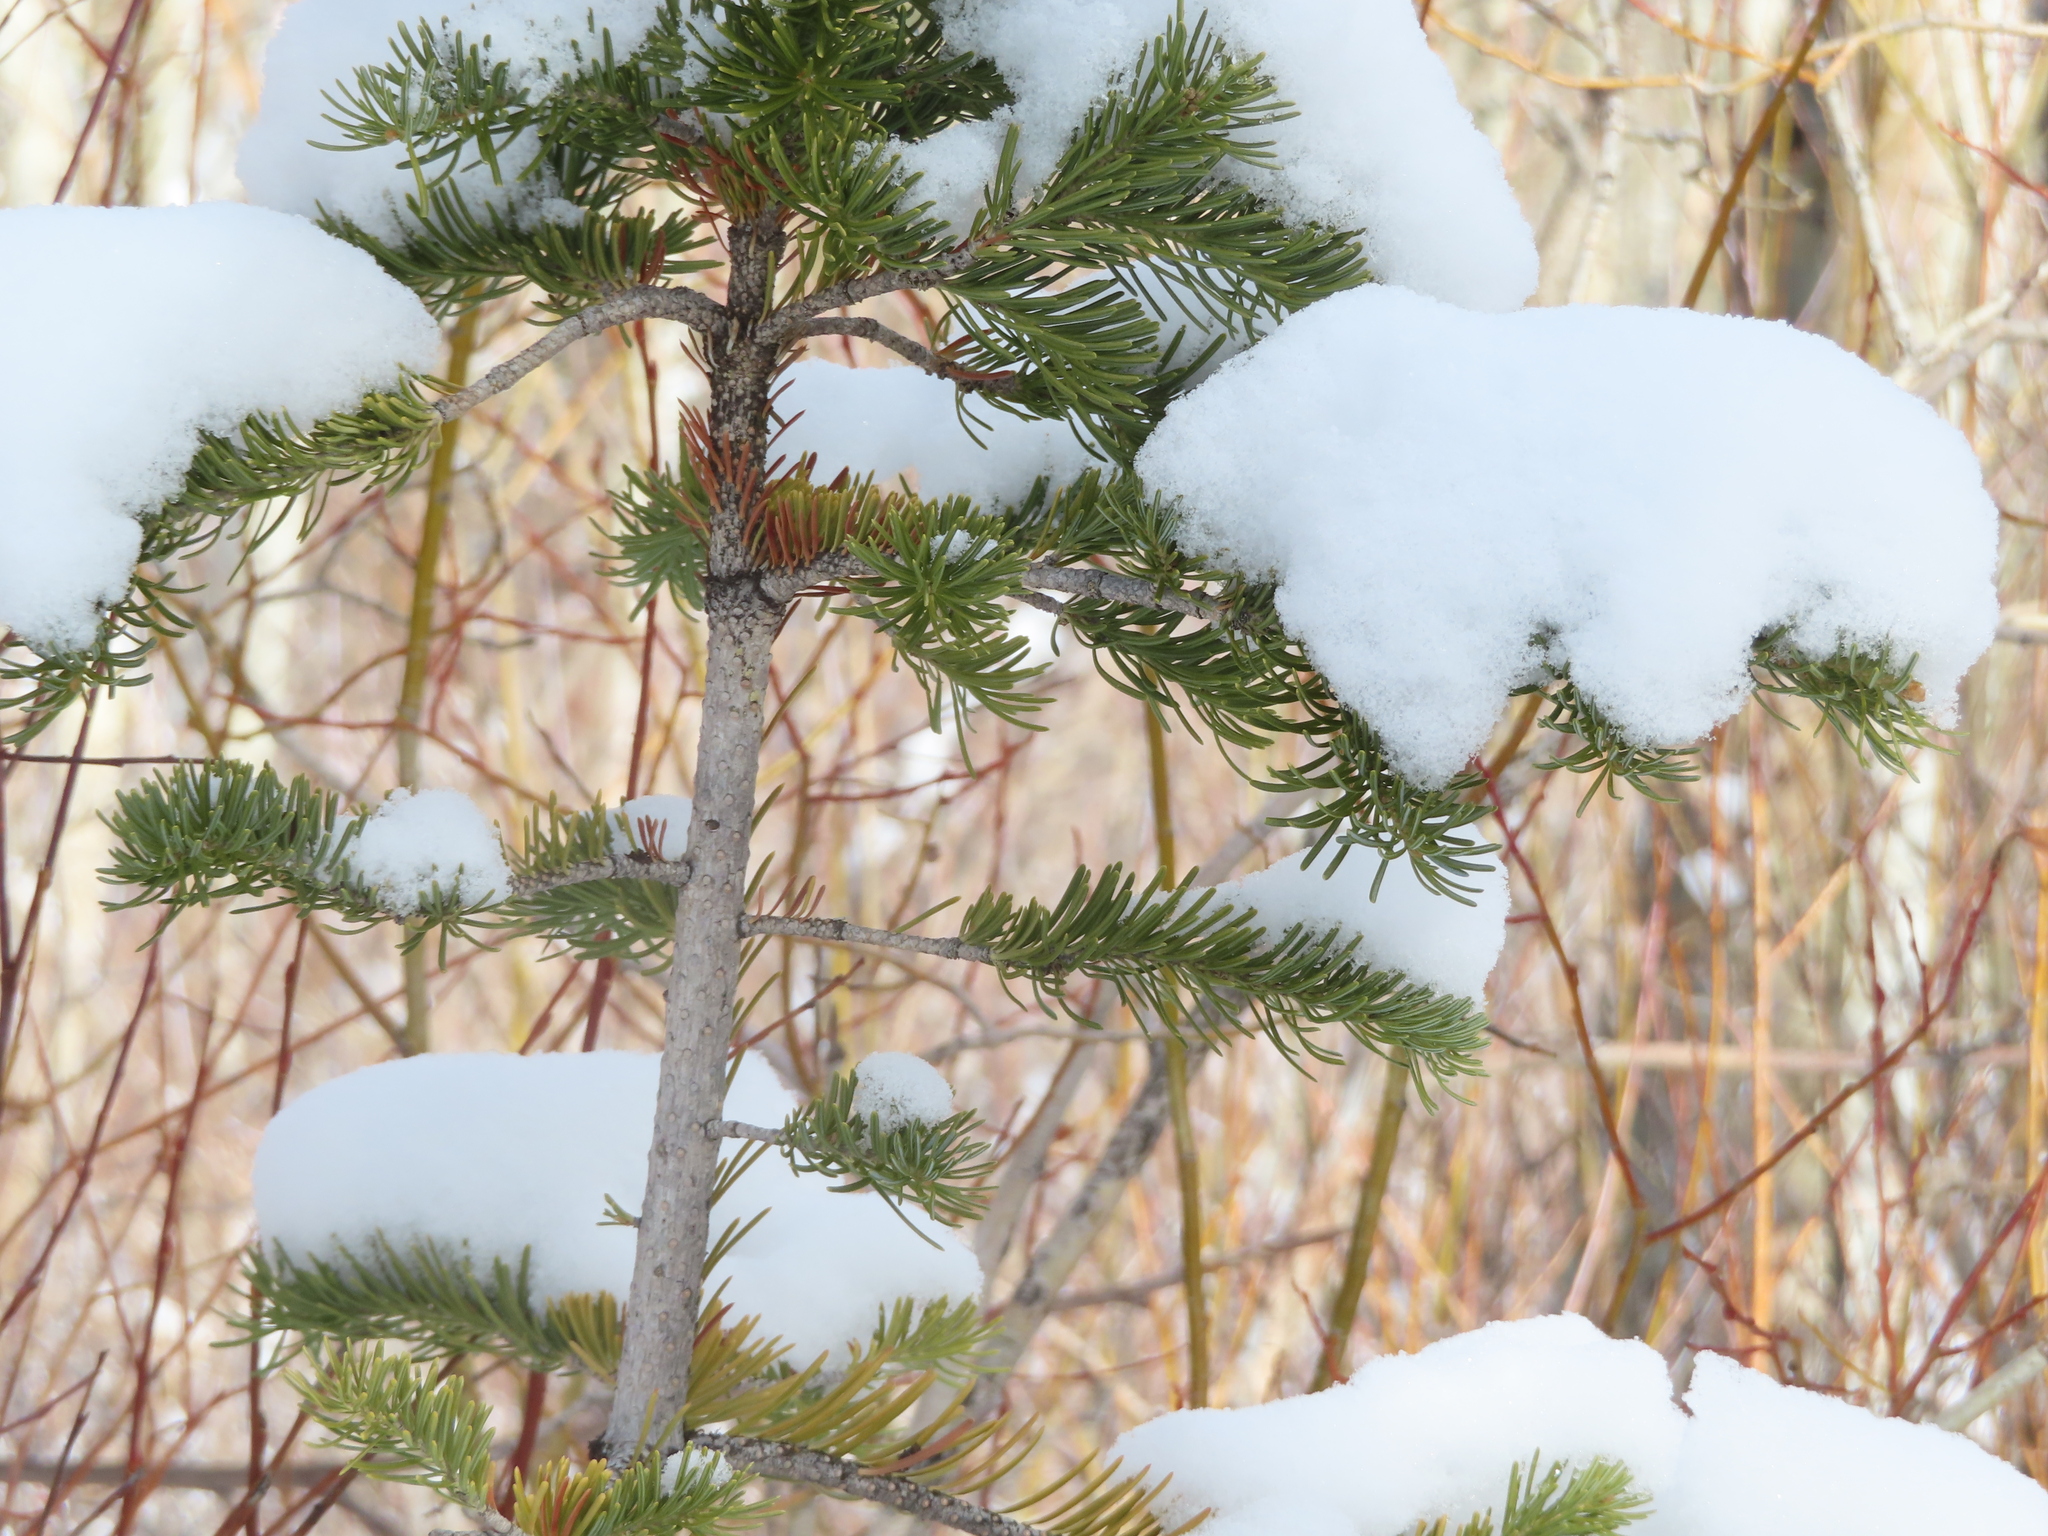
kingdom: Plantae
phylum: Tracheophyta
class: Pinopsida
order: Pinales
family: Pinaceae
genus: Abies
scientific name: Abies lasiocarpa
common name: Subalpine fir
